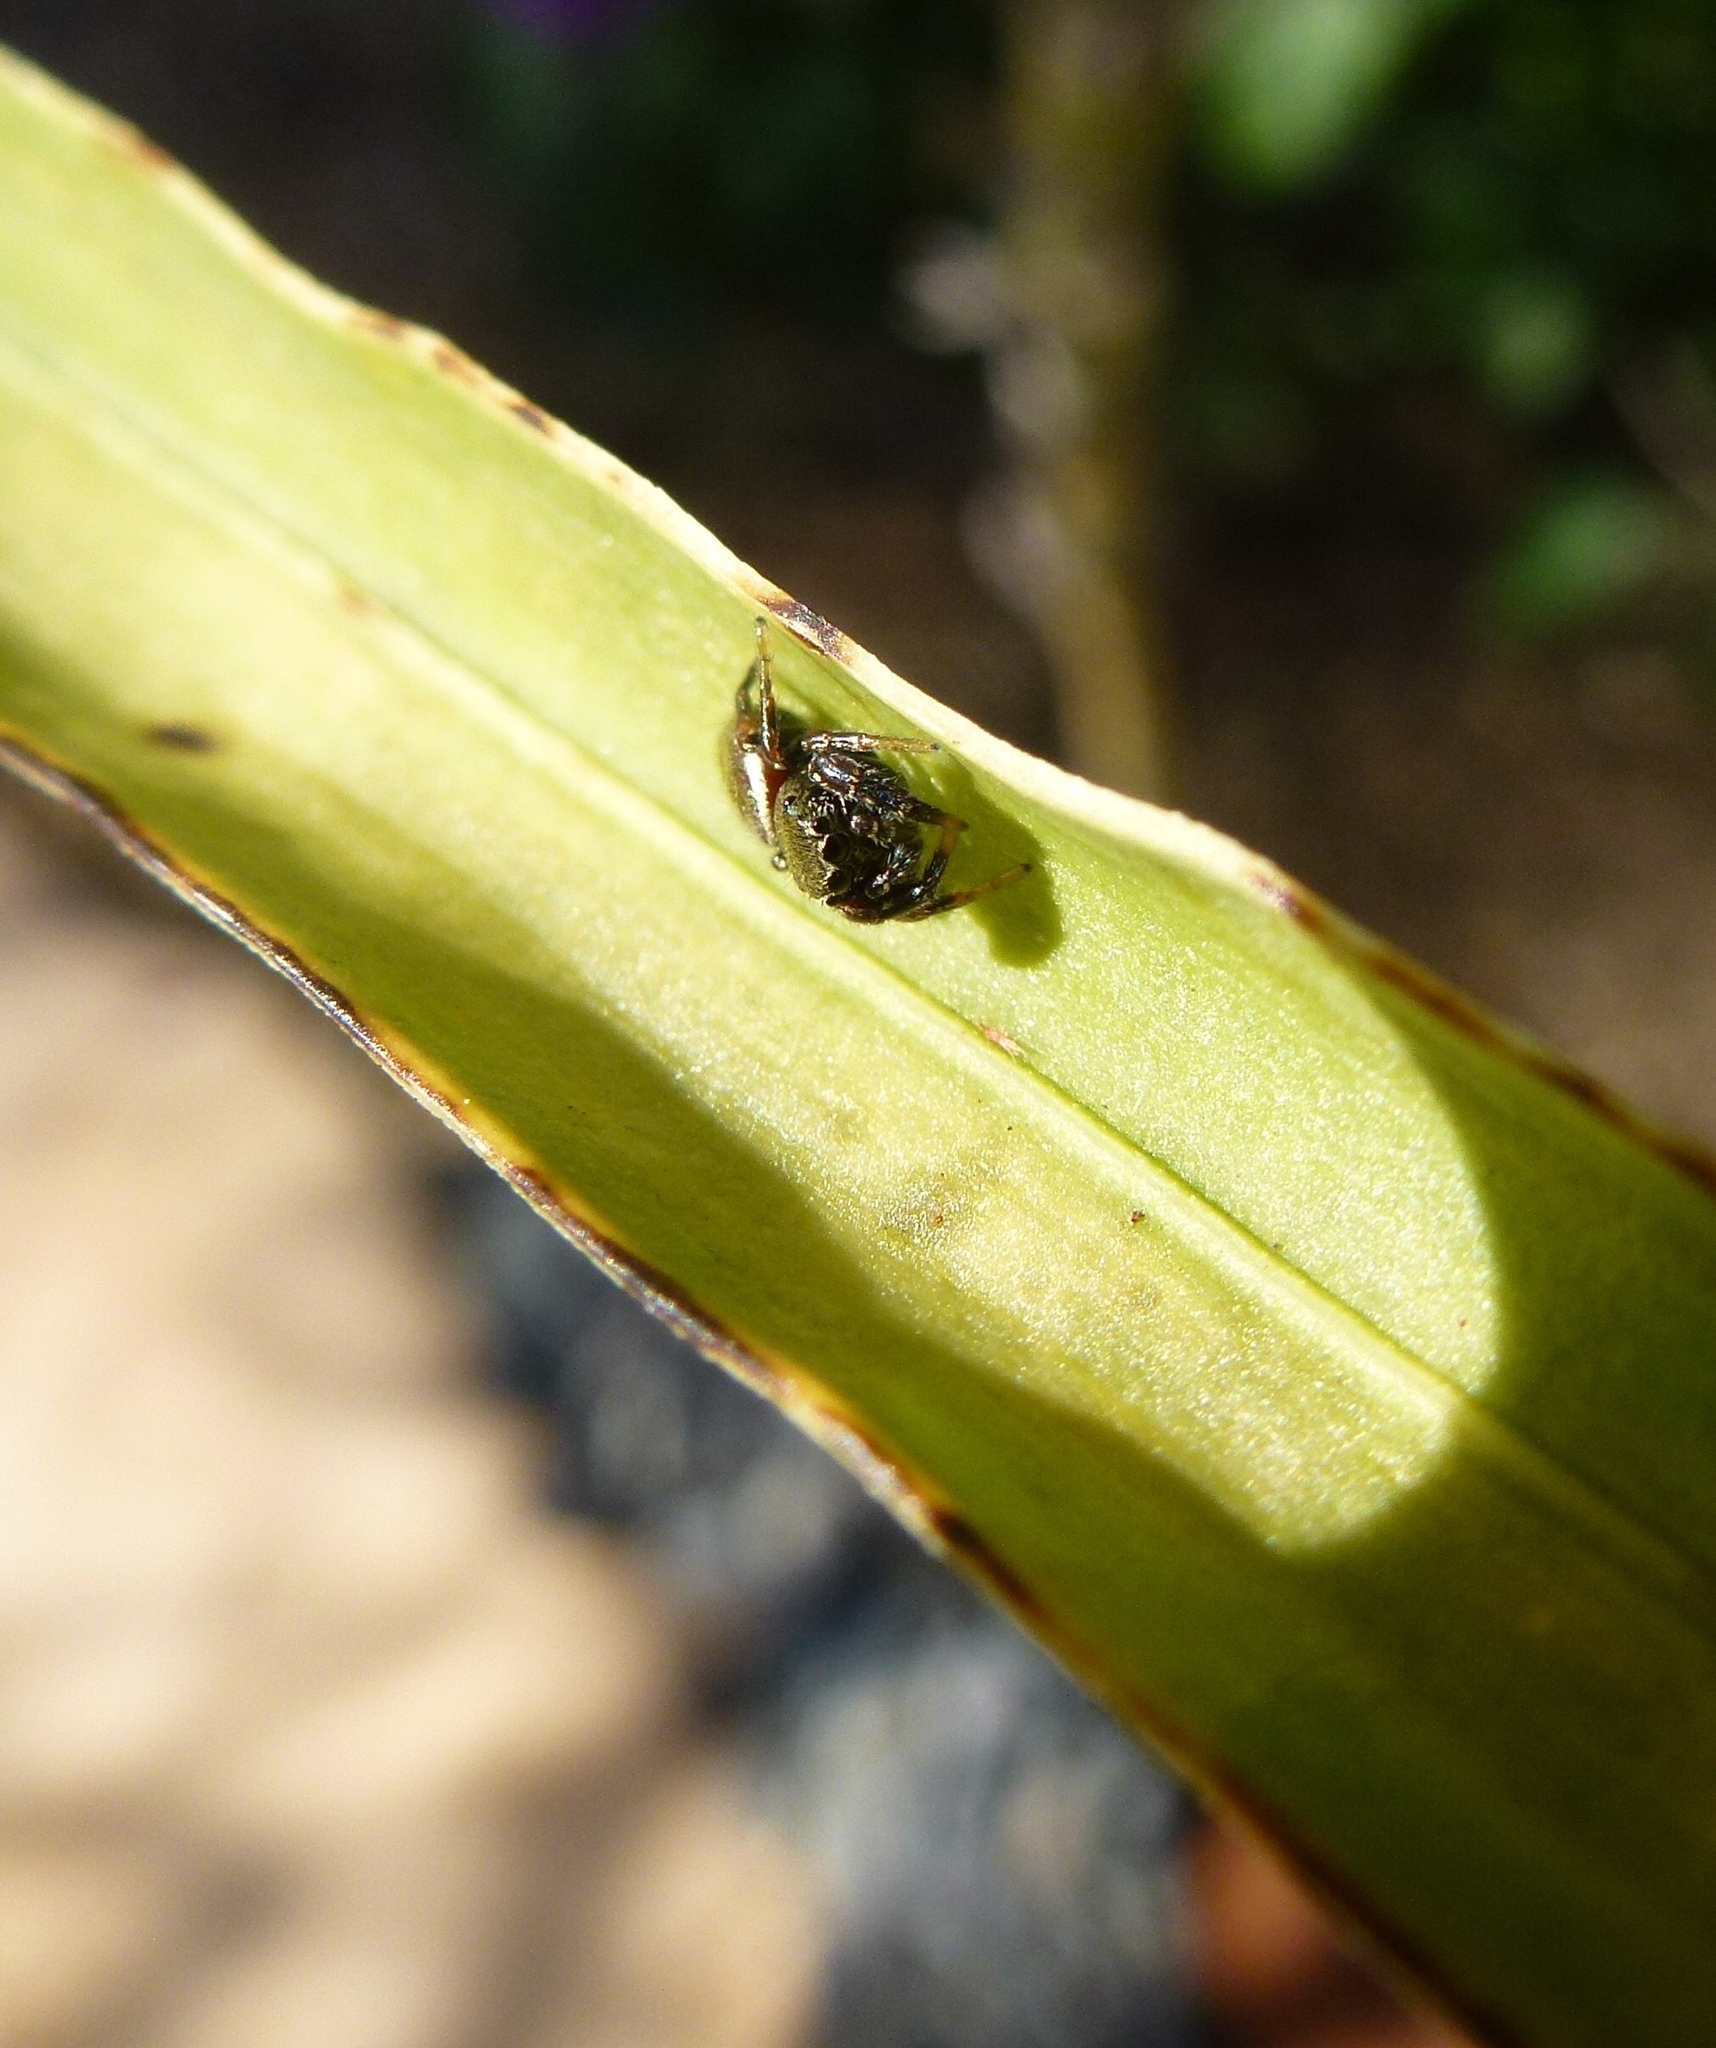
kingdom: Animalia
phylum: Arthropoda
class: Arachnida
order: Araneae
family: Salticidae
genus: Sassacus
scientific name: Sassacus vitis
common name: Jumping spiders
